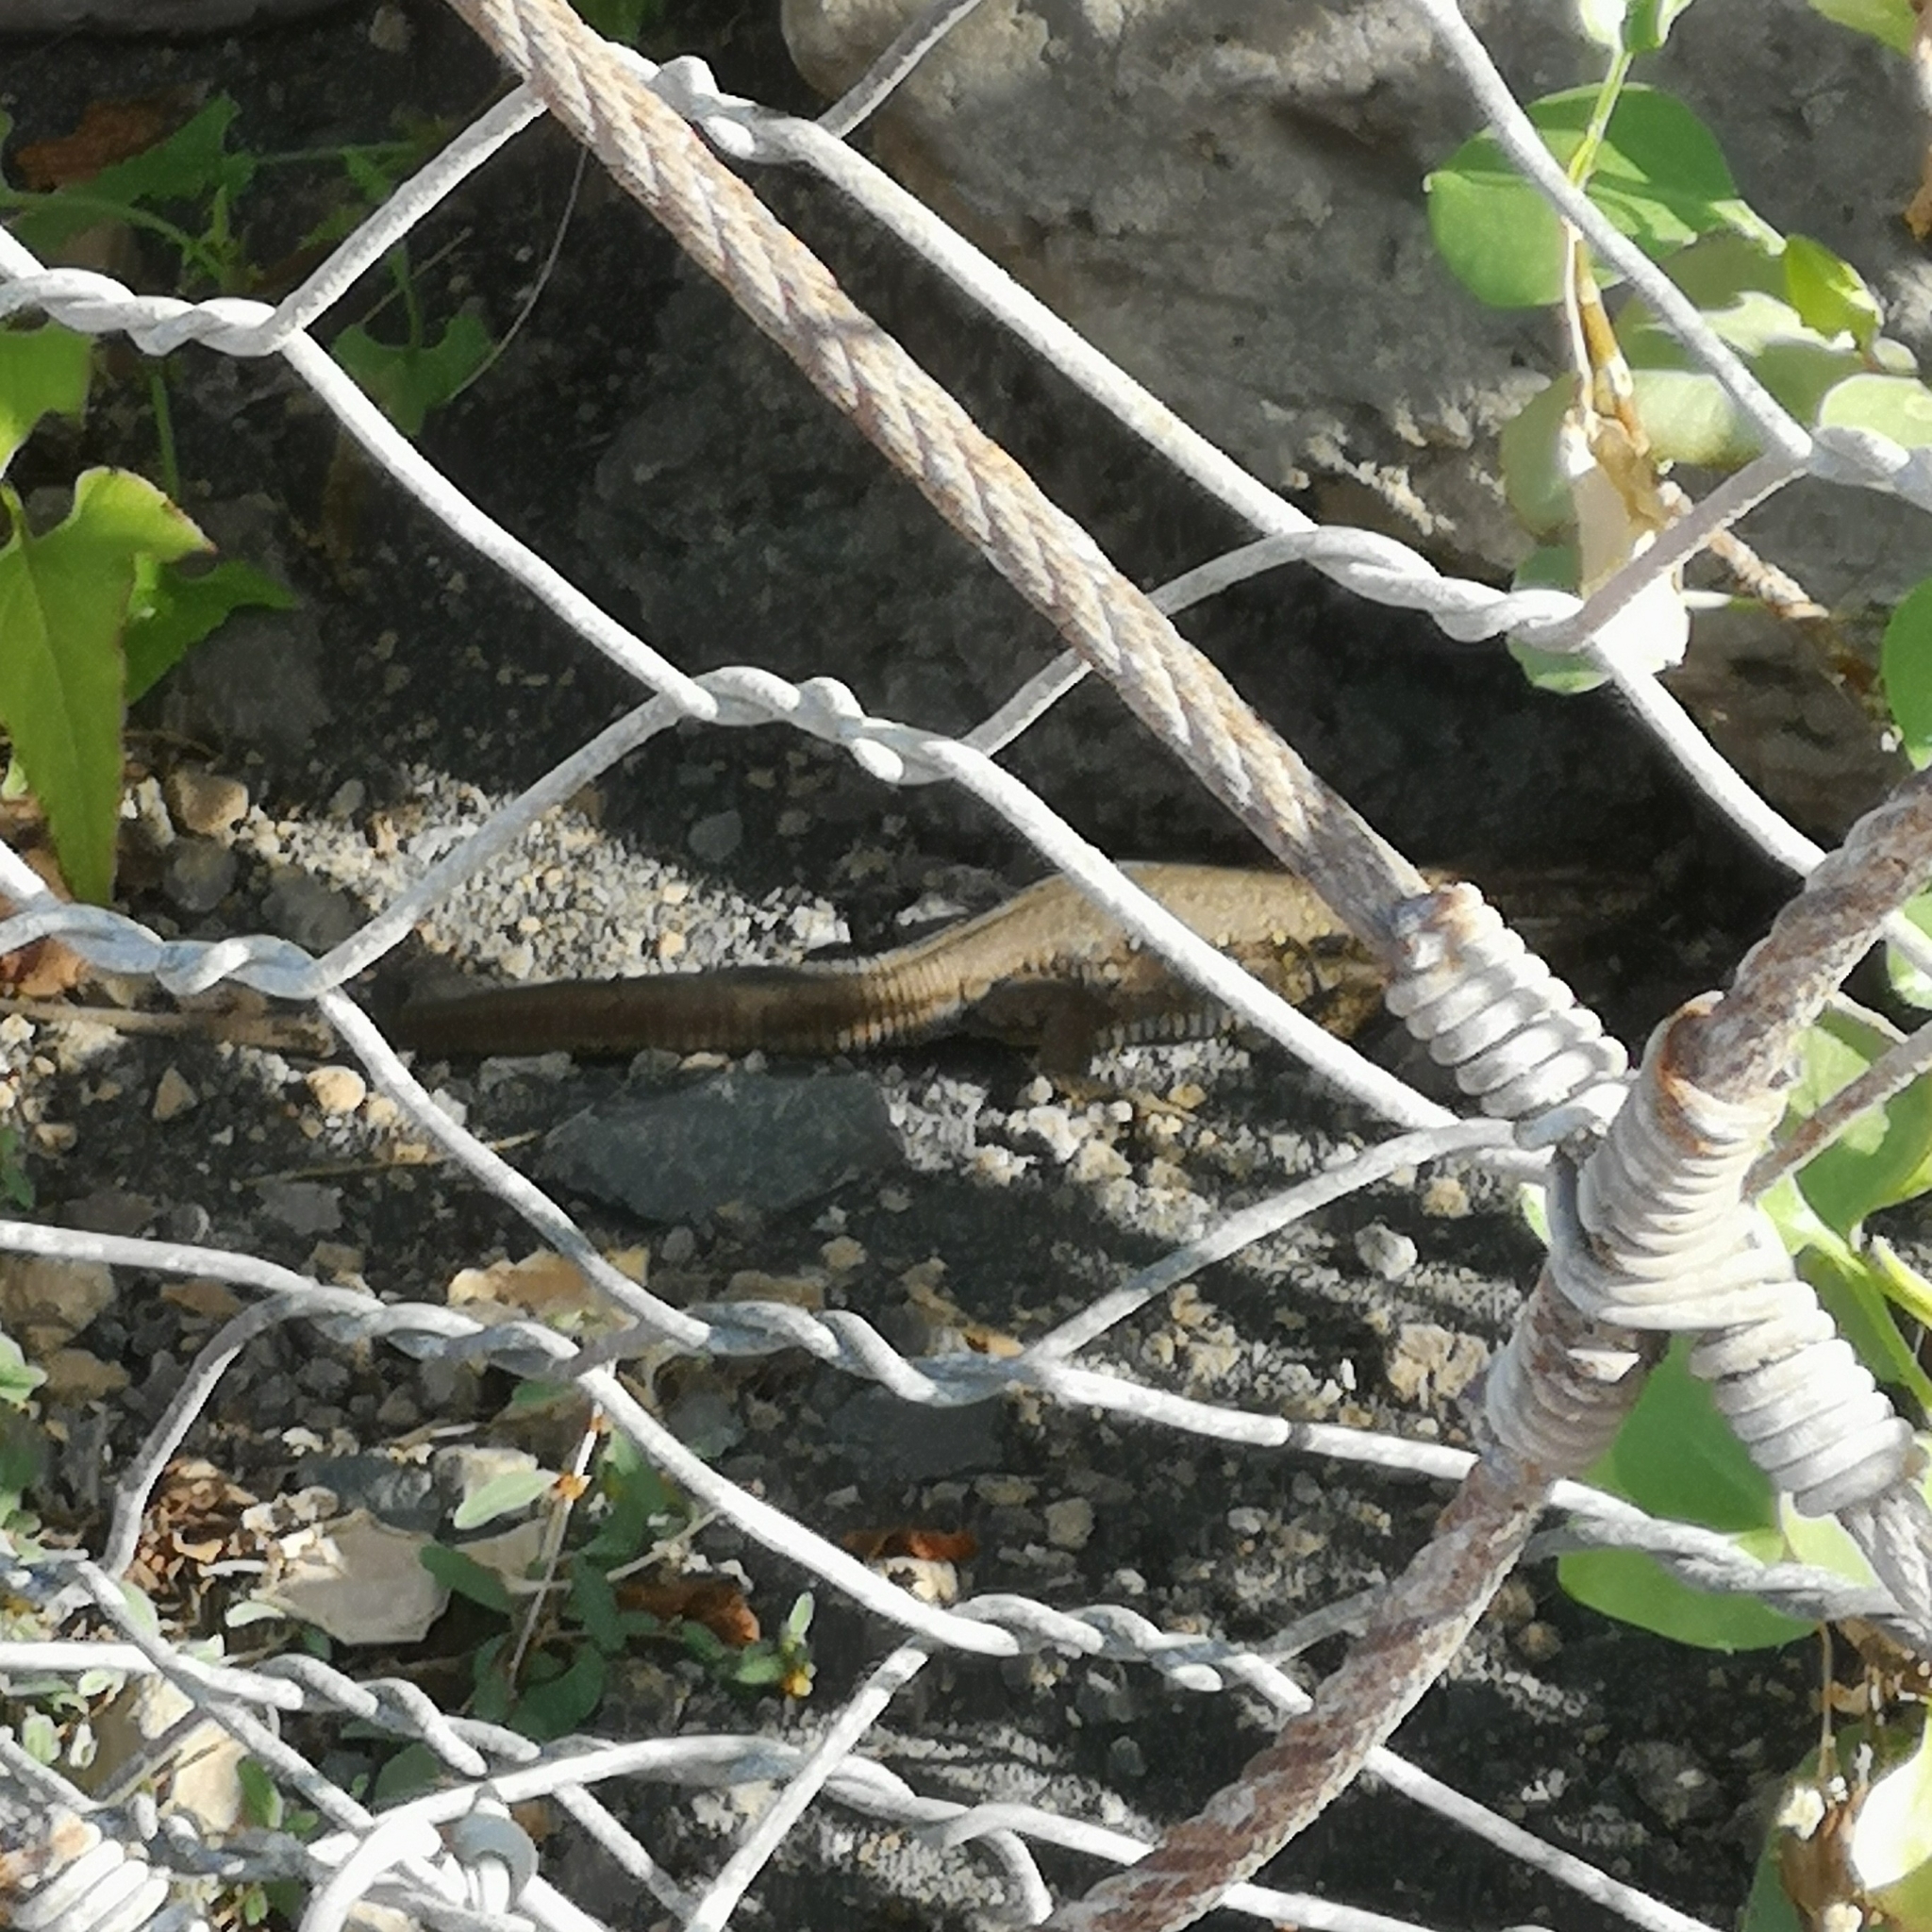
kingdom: Animalia
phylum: Chordata
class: Squamata
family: Lacertidae
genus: Gallotia
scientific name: Gallotia galloti
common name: Gallot's lizard
